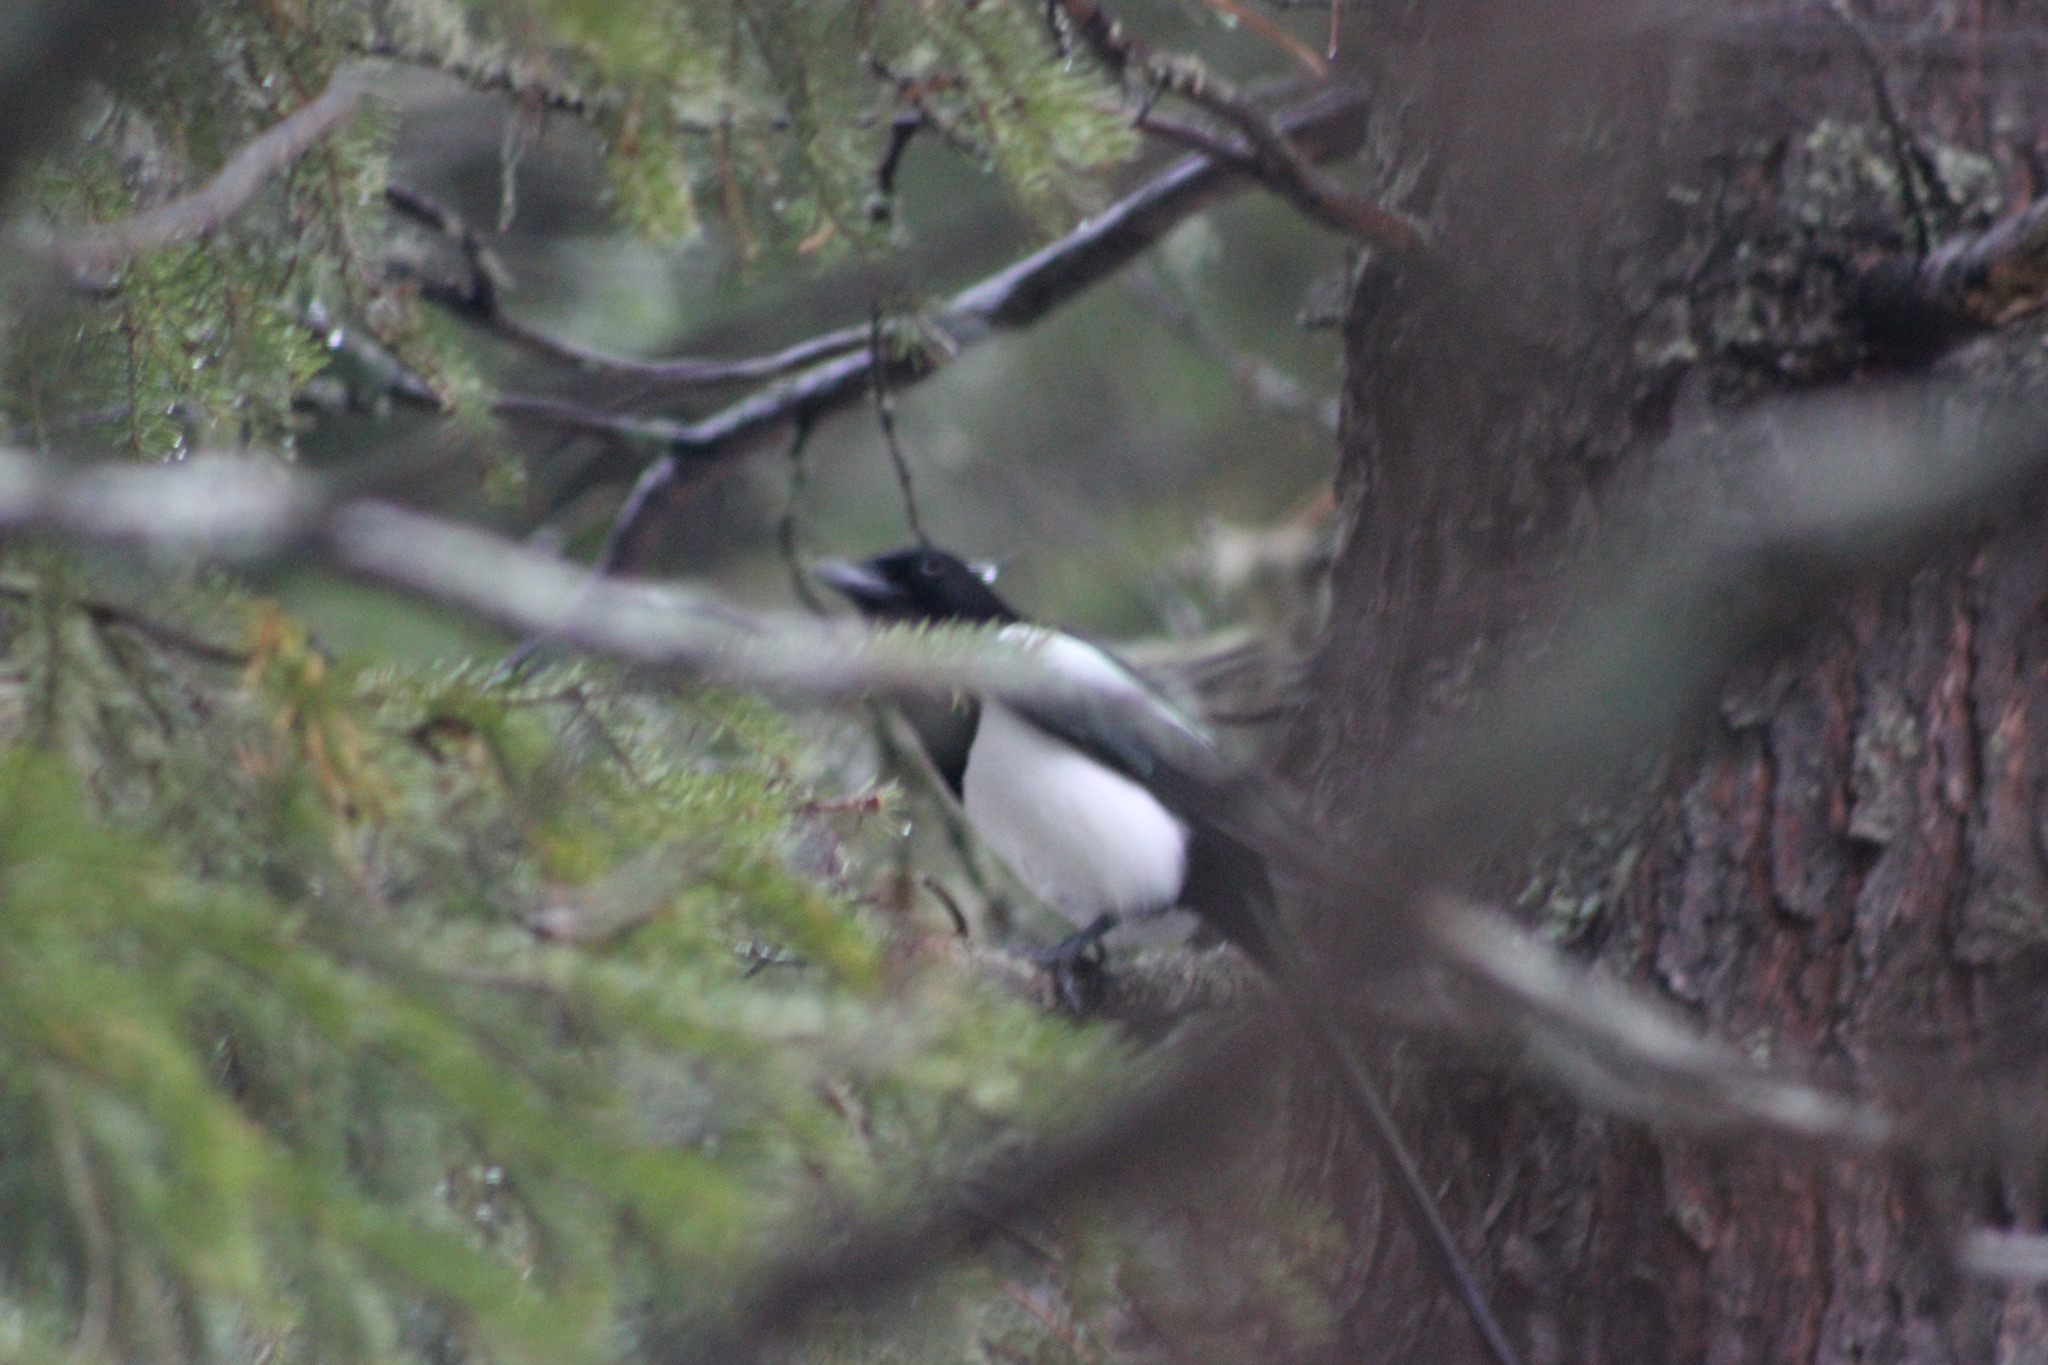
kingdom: Animalia
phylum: Chordata
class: Aves
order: Passeriformes
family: Corvidae
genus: Pica
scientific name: Pica pica
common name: Eurasian magpie
